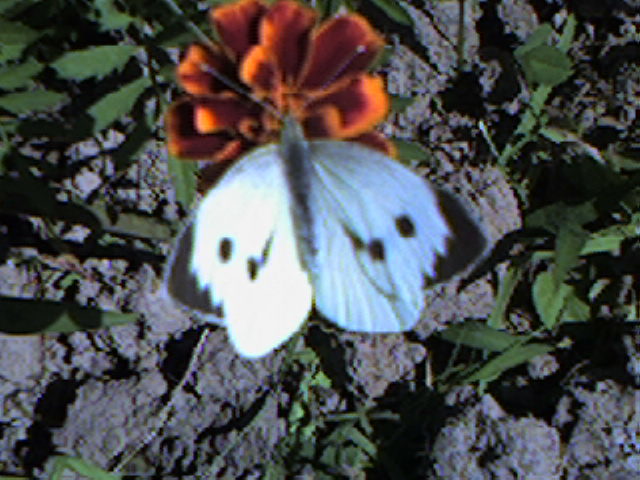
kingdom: Animalia
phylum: Arthropoda
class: Insecta
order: Lepidoptera
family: Pieridae
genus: Pieris
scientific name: Pieris brassicae
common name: Large white
